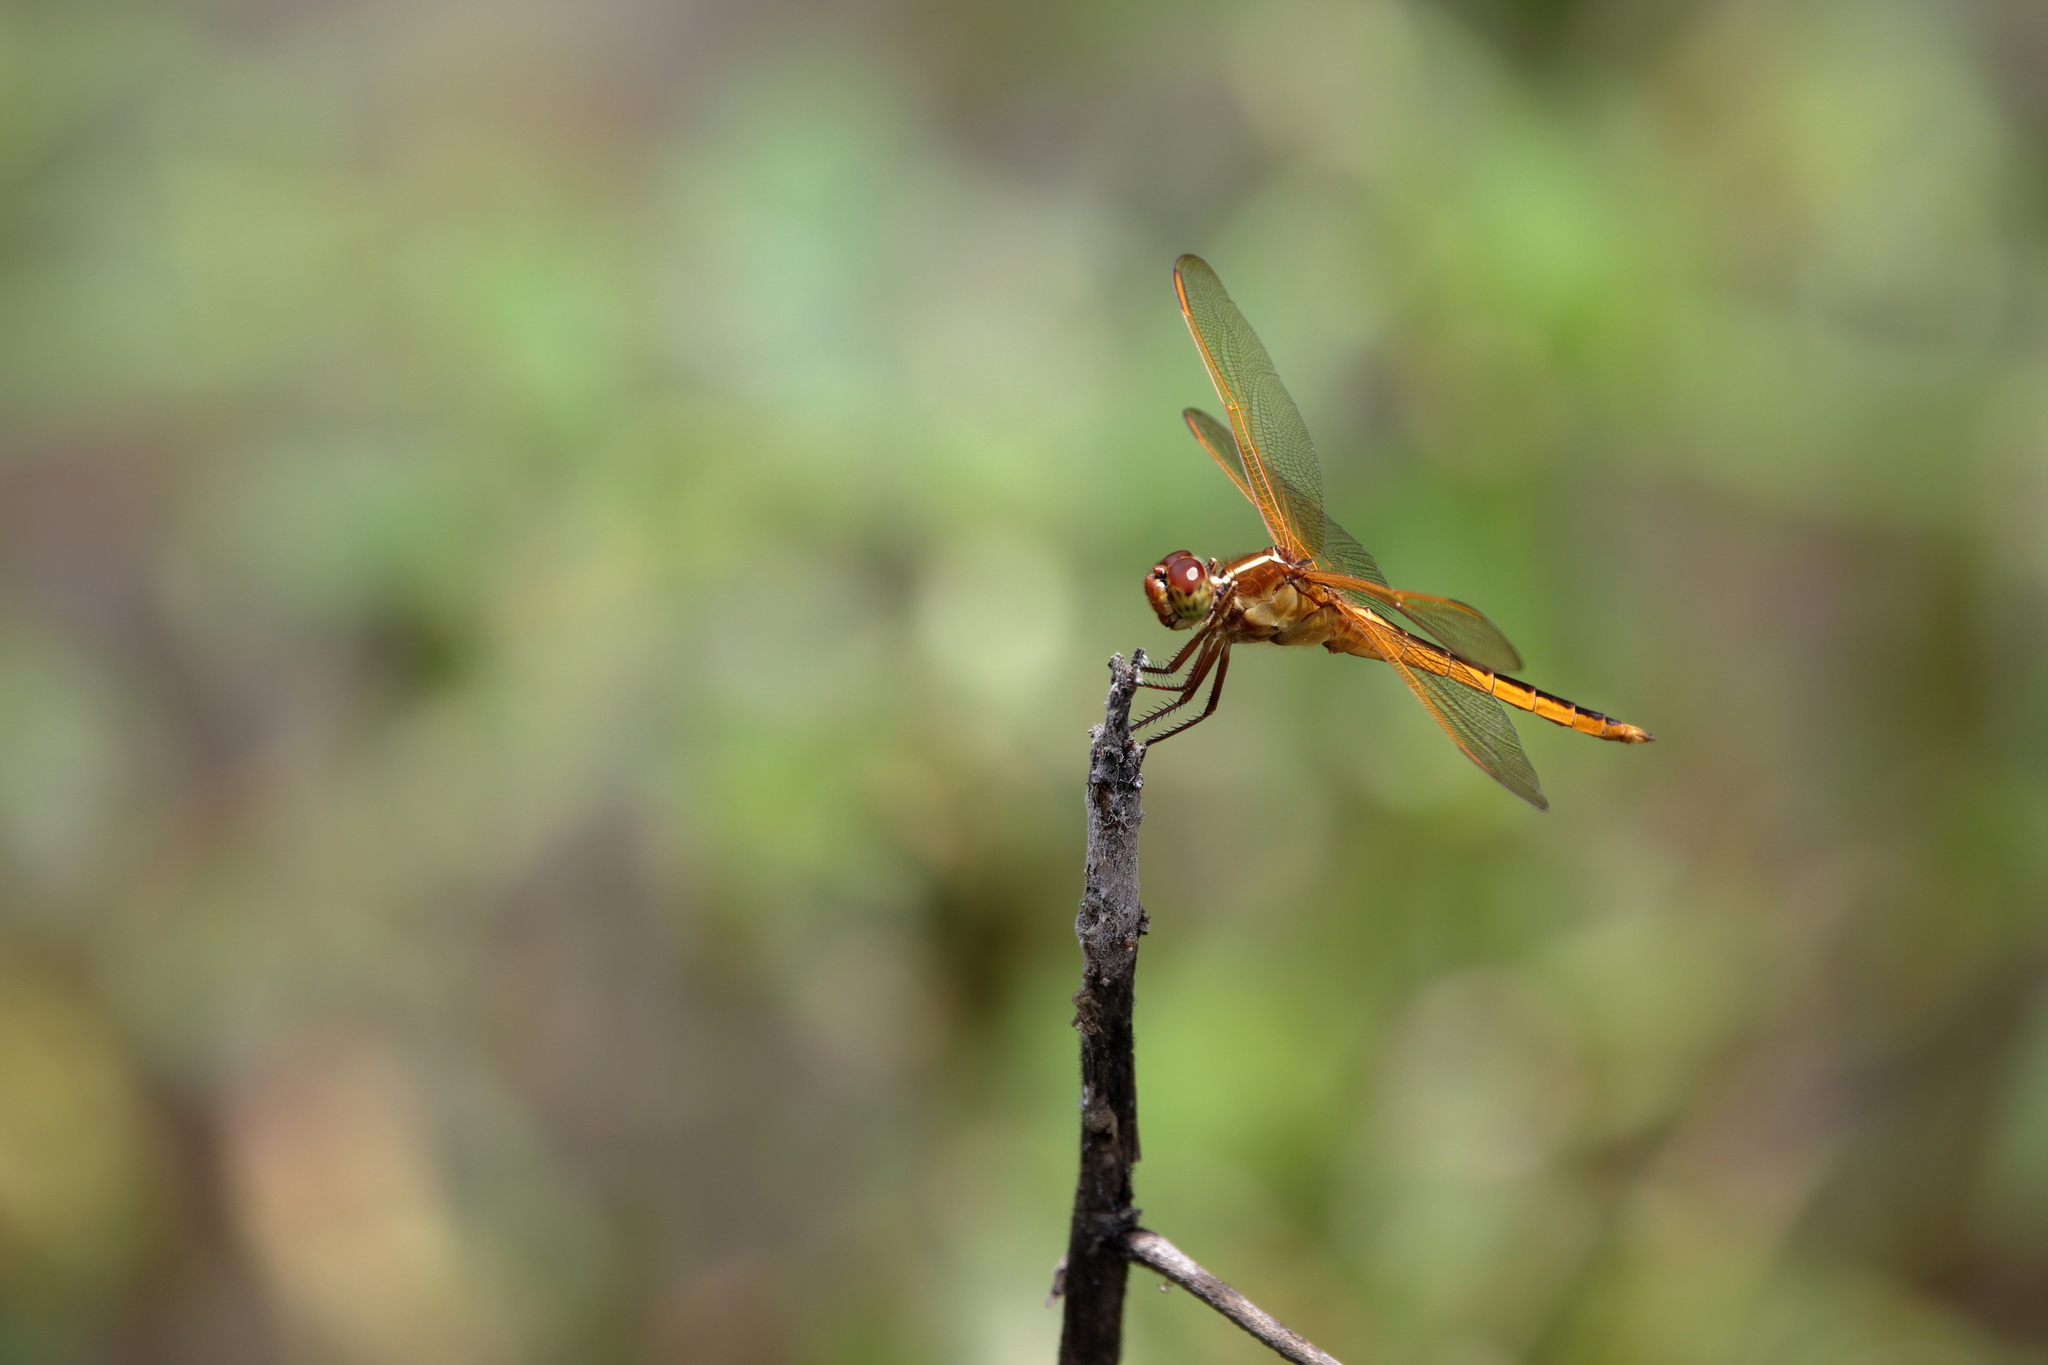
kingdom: Animalia
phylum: Arthropoda
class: Insecta
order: Odonata
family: Libellulidae
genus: Libellula
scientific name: Libellula needhami
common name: Needham's skimmer
